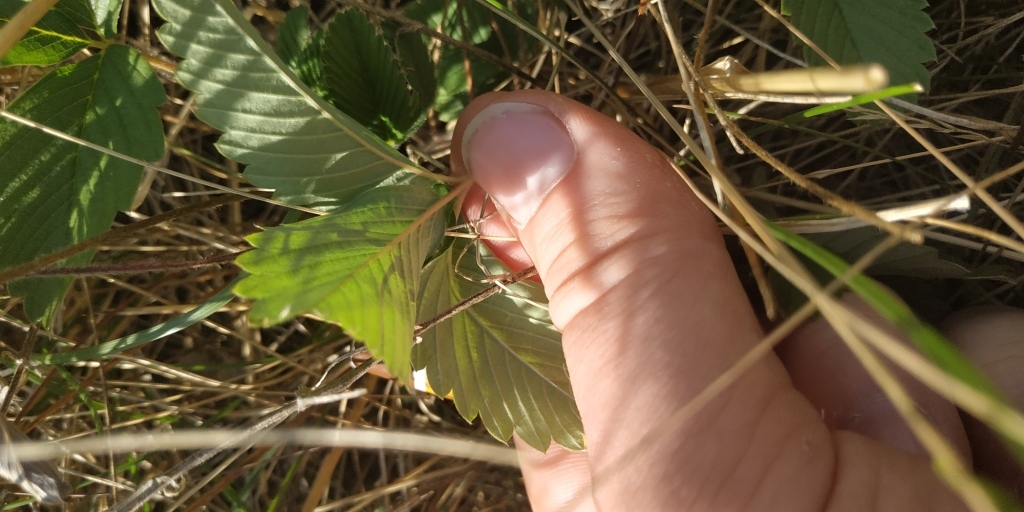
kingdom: Plantae
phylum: Tracheophyta
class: Magnoliopsida
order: Rosales
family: Rosaceae
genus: Fragaria
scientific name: Fragaria viridis
